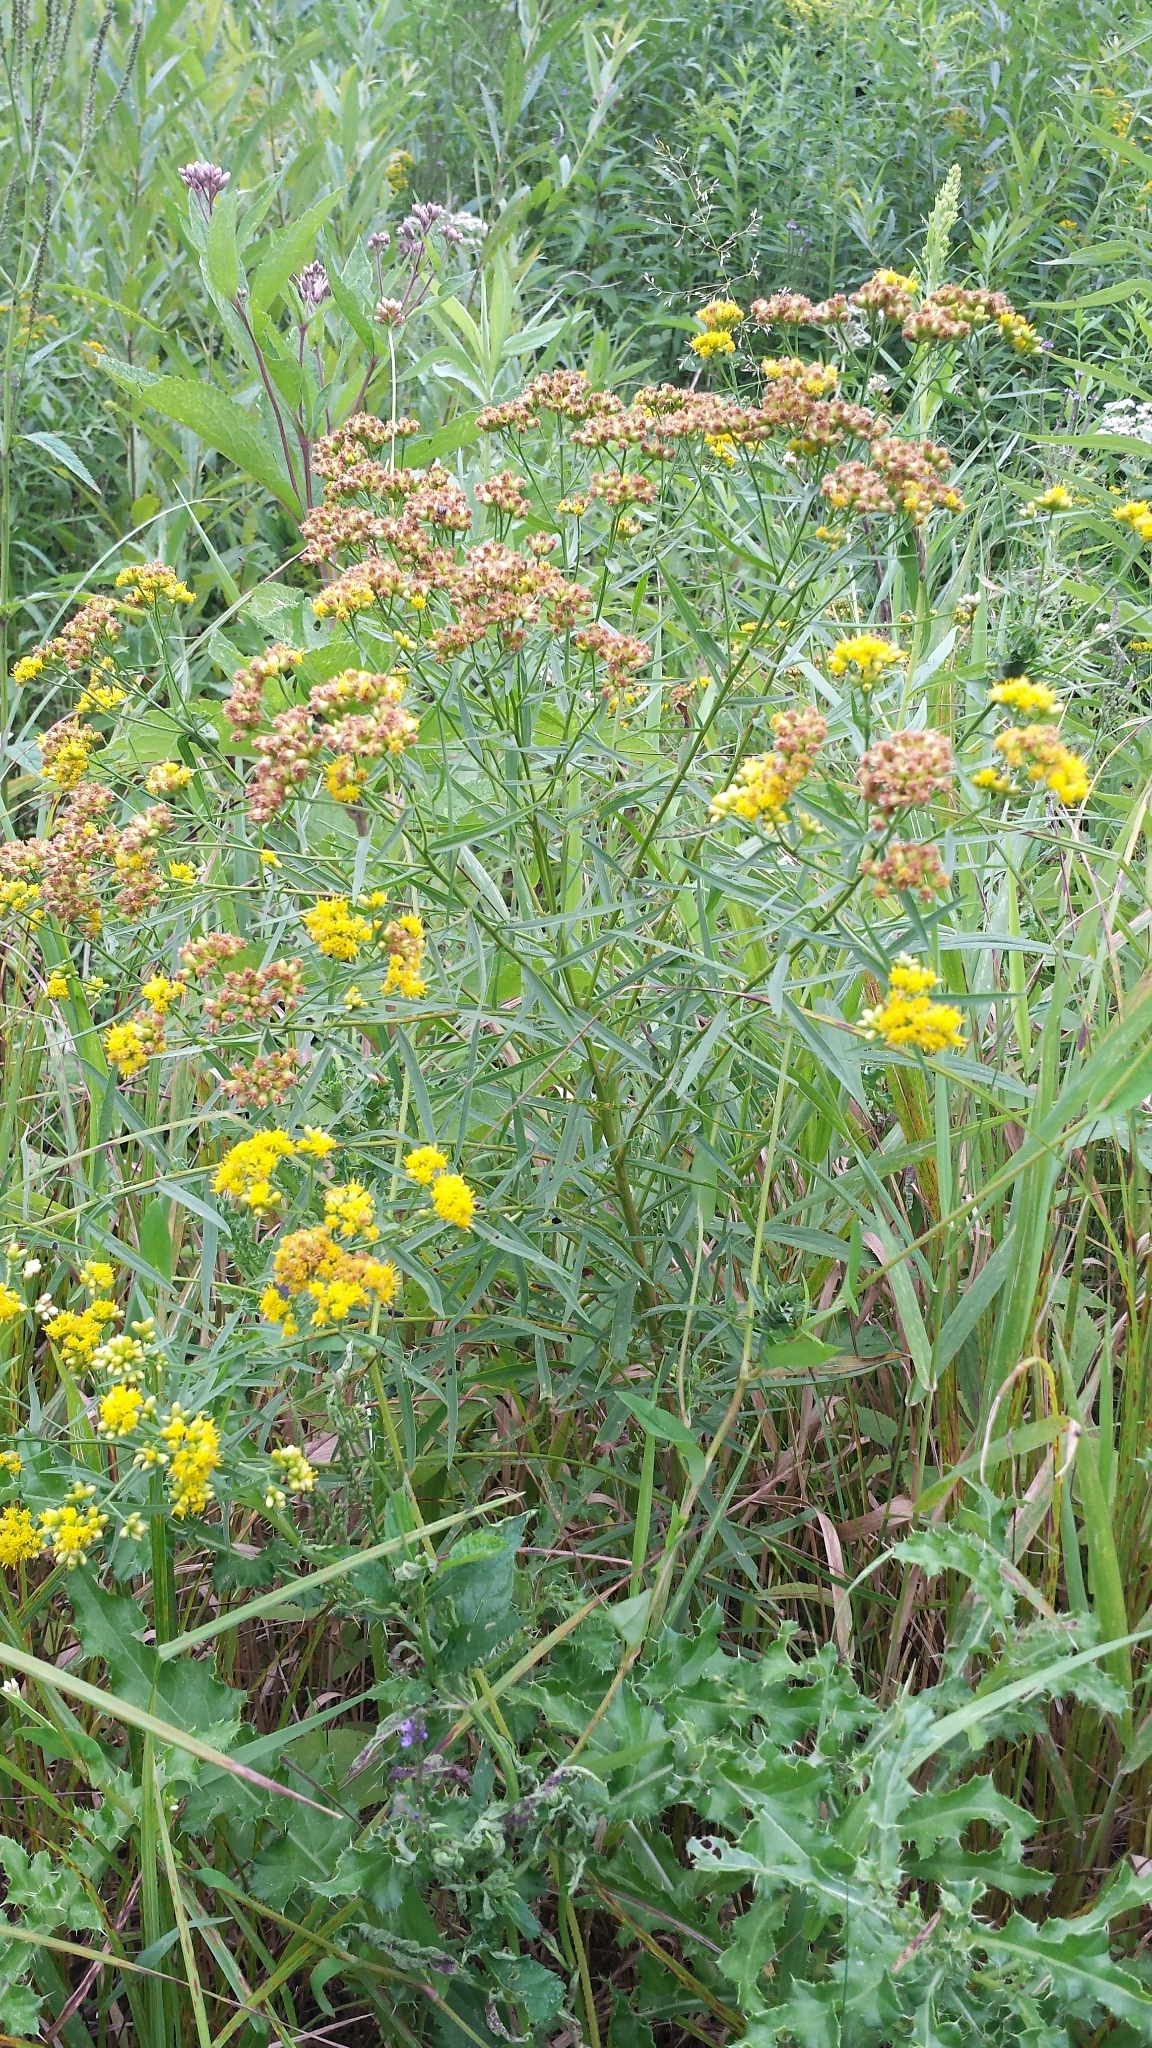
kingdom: Plantae
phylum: Tracheophyta
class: Magnoliopsida
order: Asterales
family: Asteraceae
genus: Euthamia
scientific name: Euthamia graminifolia
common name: Common goldentop
